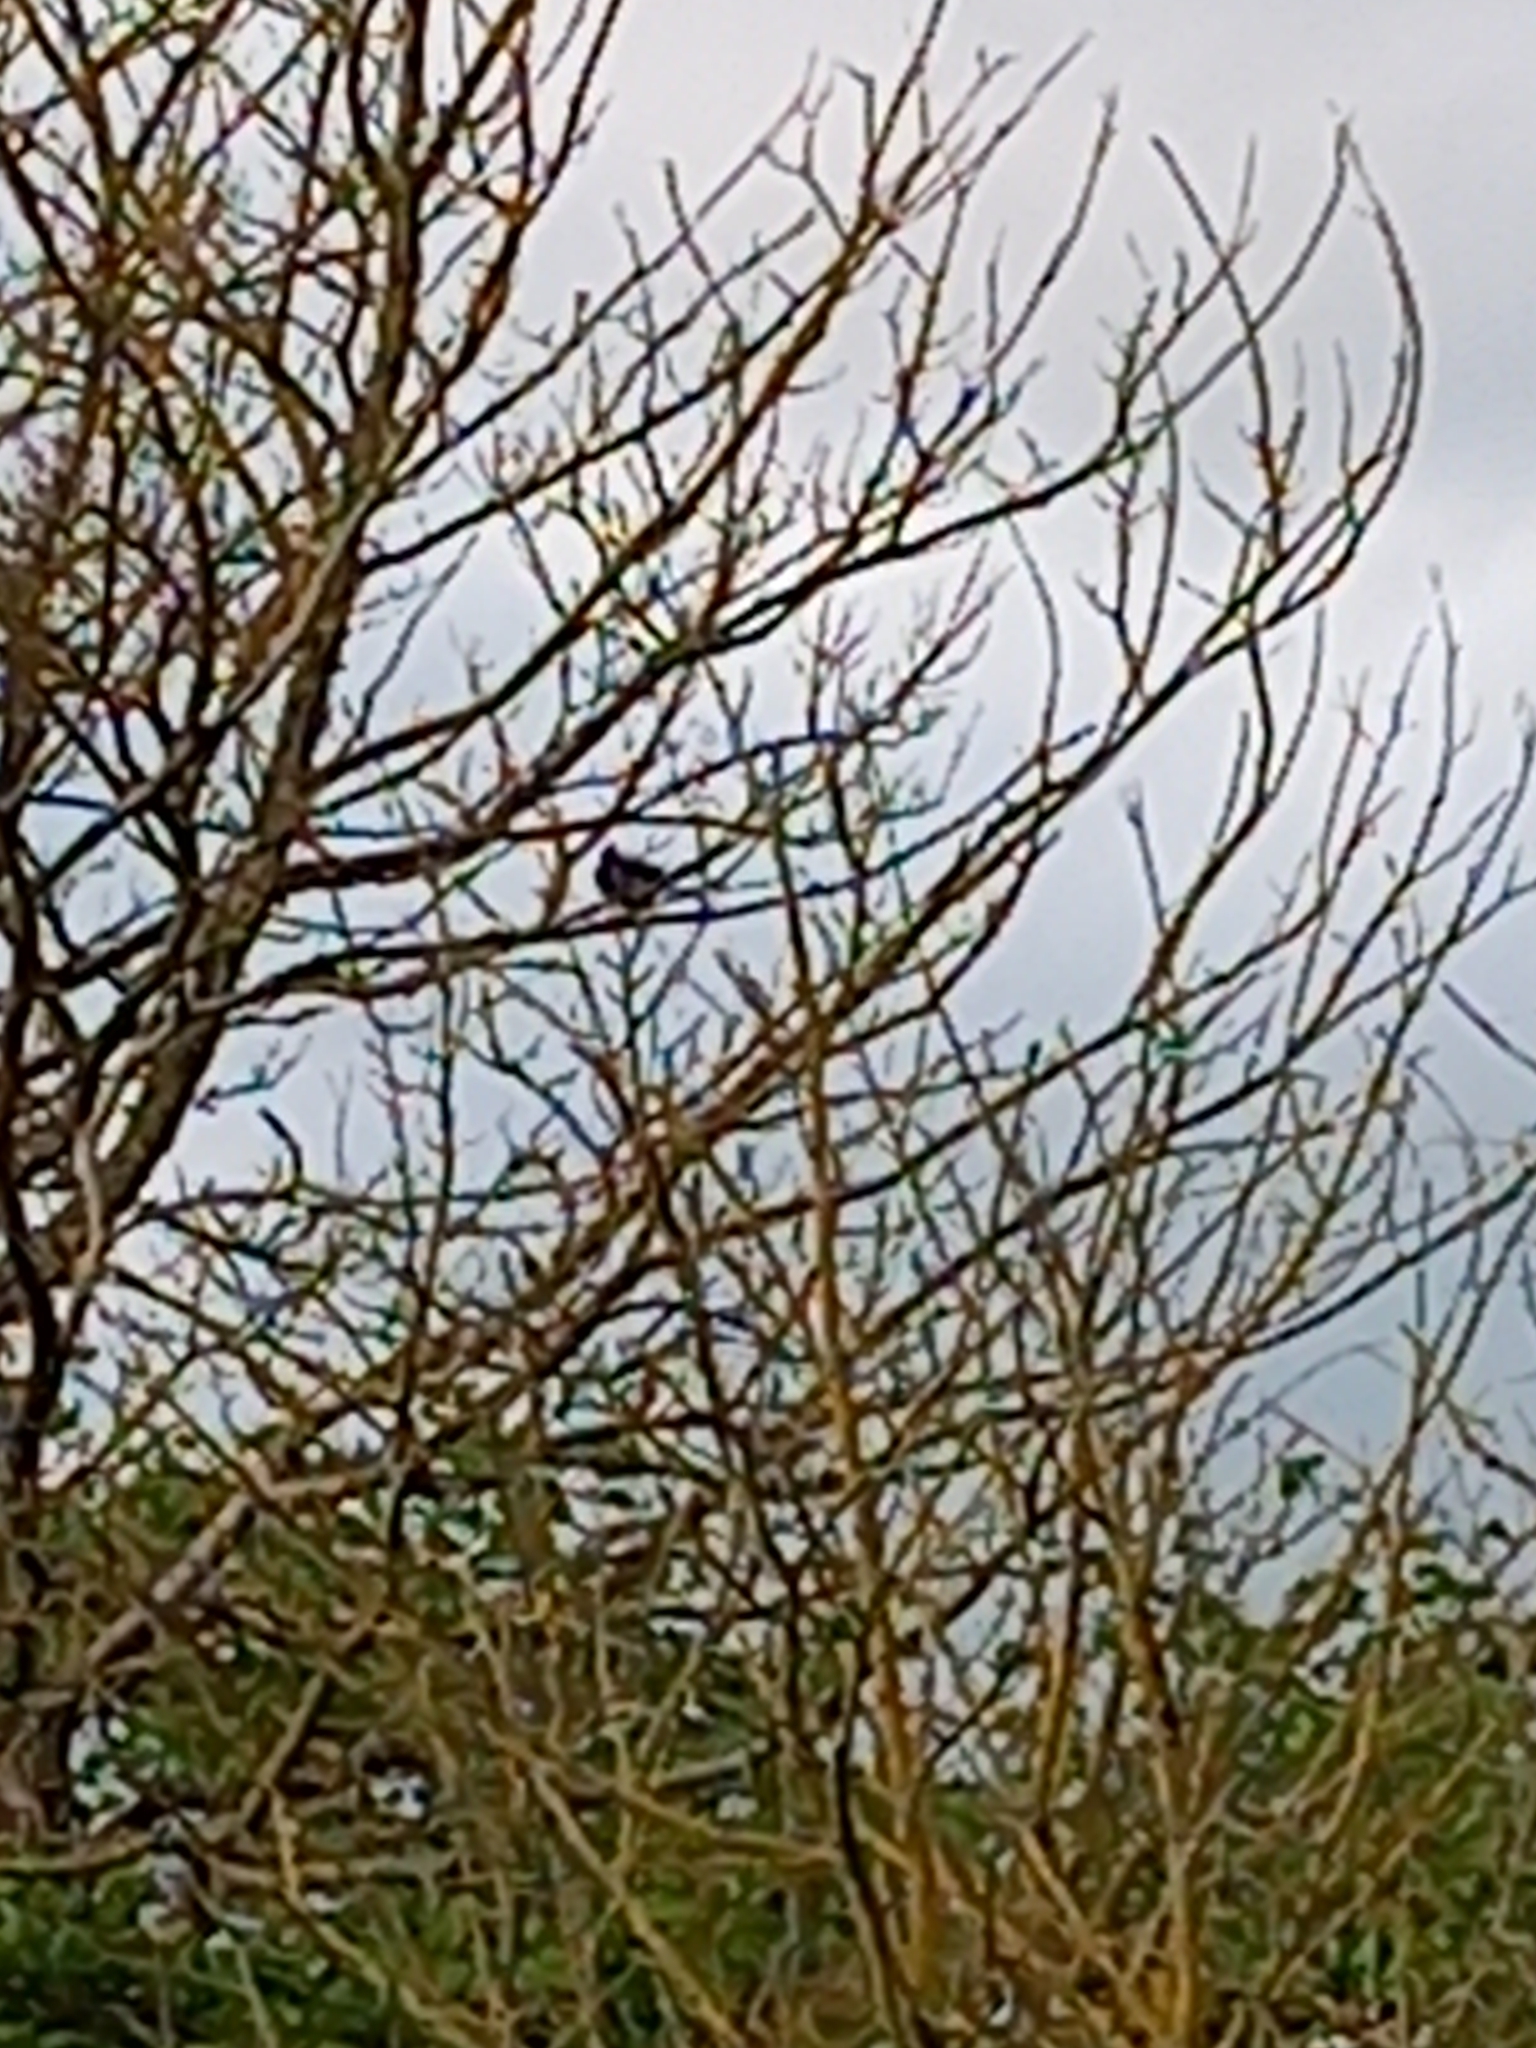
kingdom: Animalia
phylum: Chordata
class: Aves
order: Passeriformes
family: Turdidae
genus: Turdus
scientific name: Turdus merula
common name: Common blackbird
